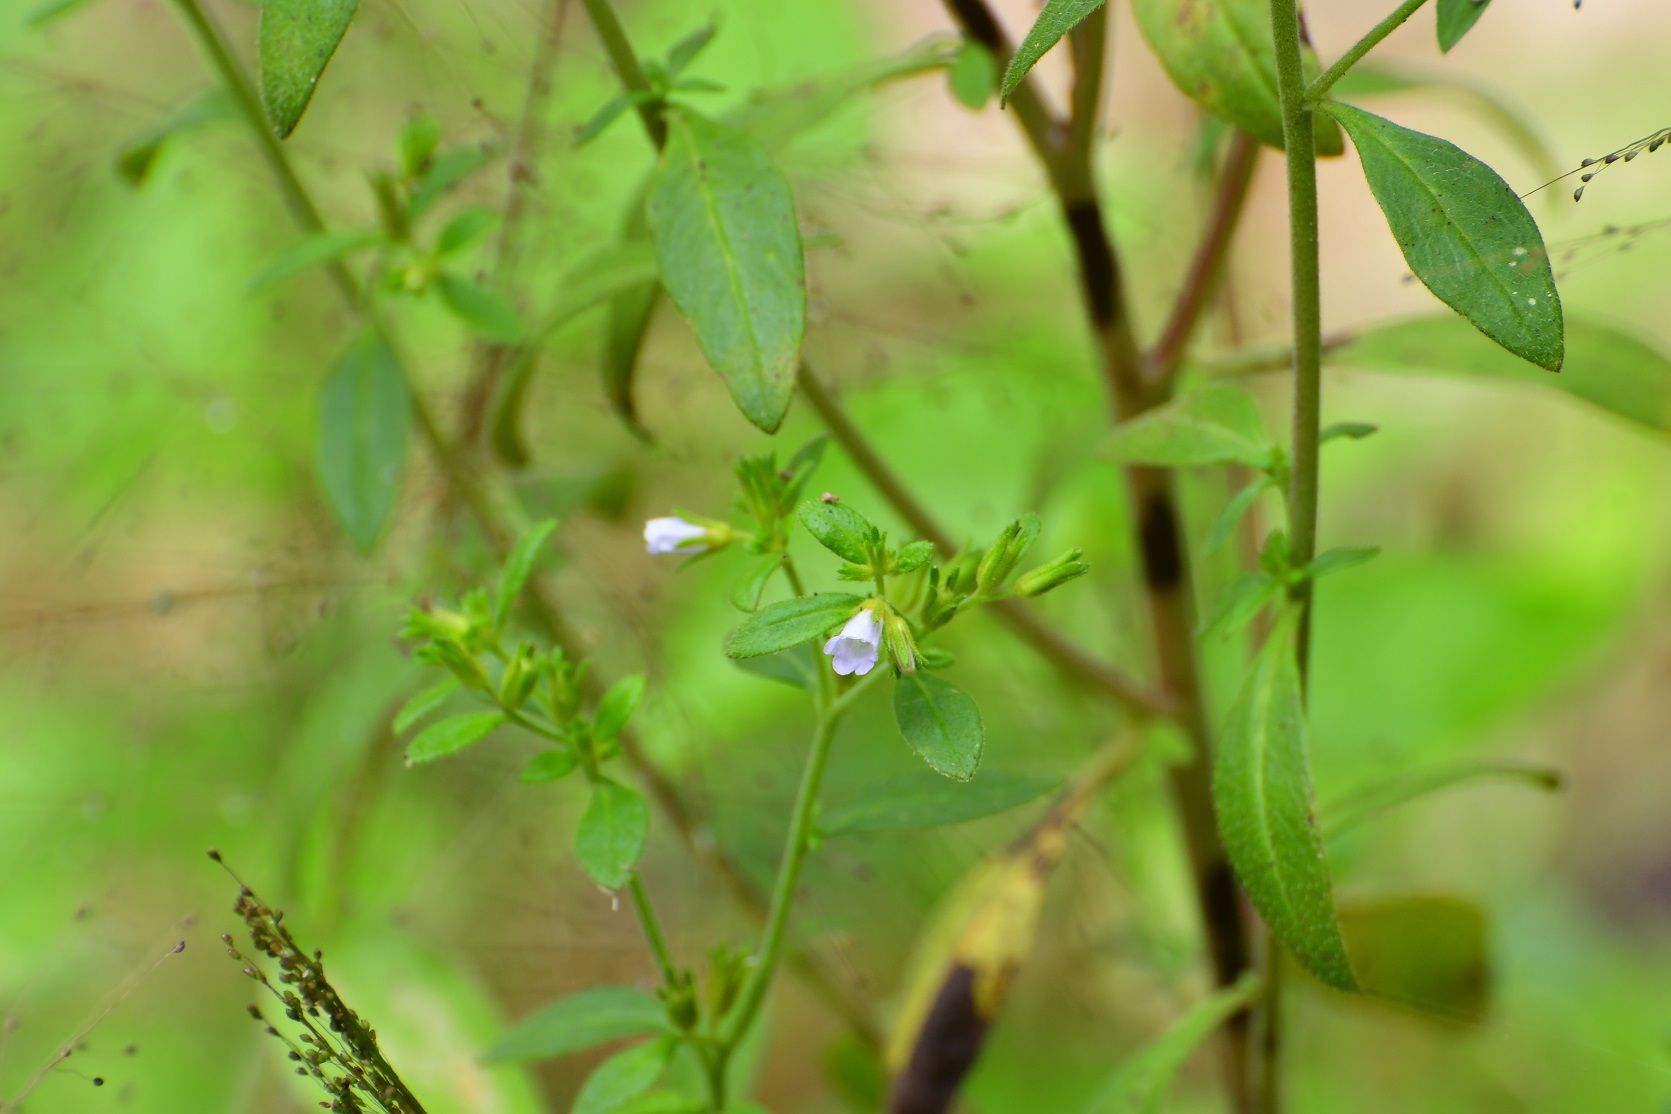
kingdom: Plantae
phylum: Tracheophyta
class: Magnoliopsida
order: Boraginales
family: Namaceae
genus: Nama
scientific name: Nama dichotoma
